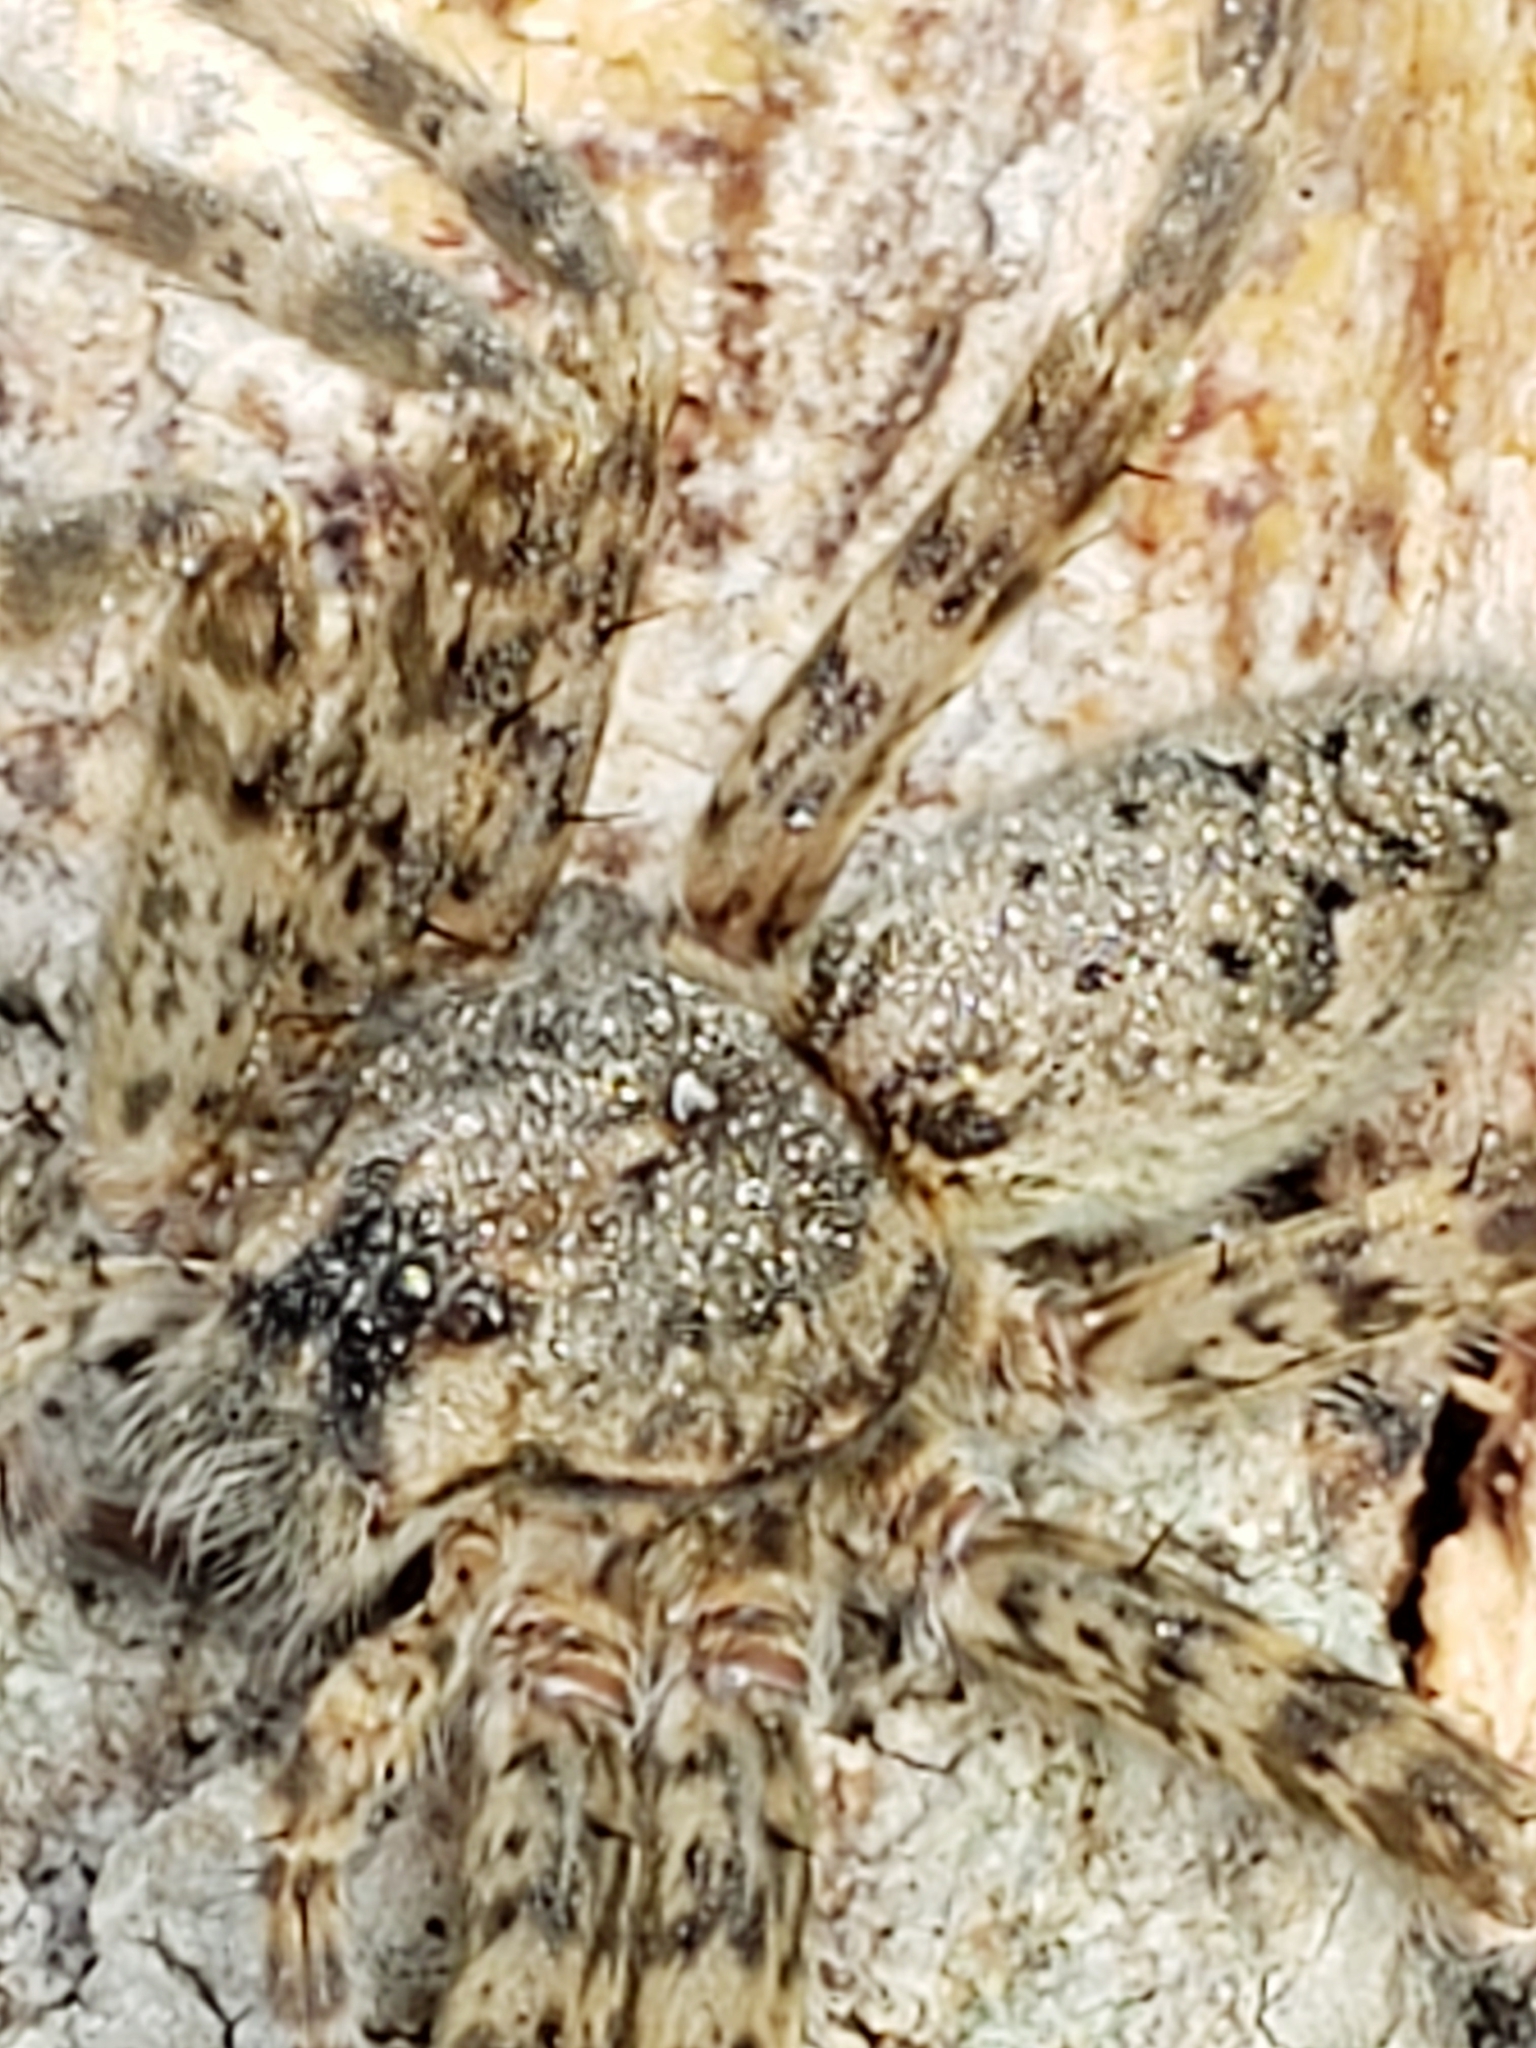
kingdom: Animalia
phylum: Arthropoda
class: Arachnida
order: Araneae
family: Pisauridae
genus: Dolomedes
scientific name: Dolomedes tenebrosus
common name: Dark fishing spider
